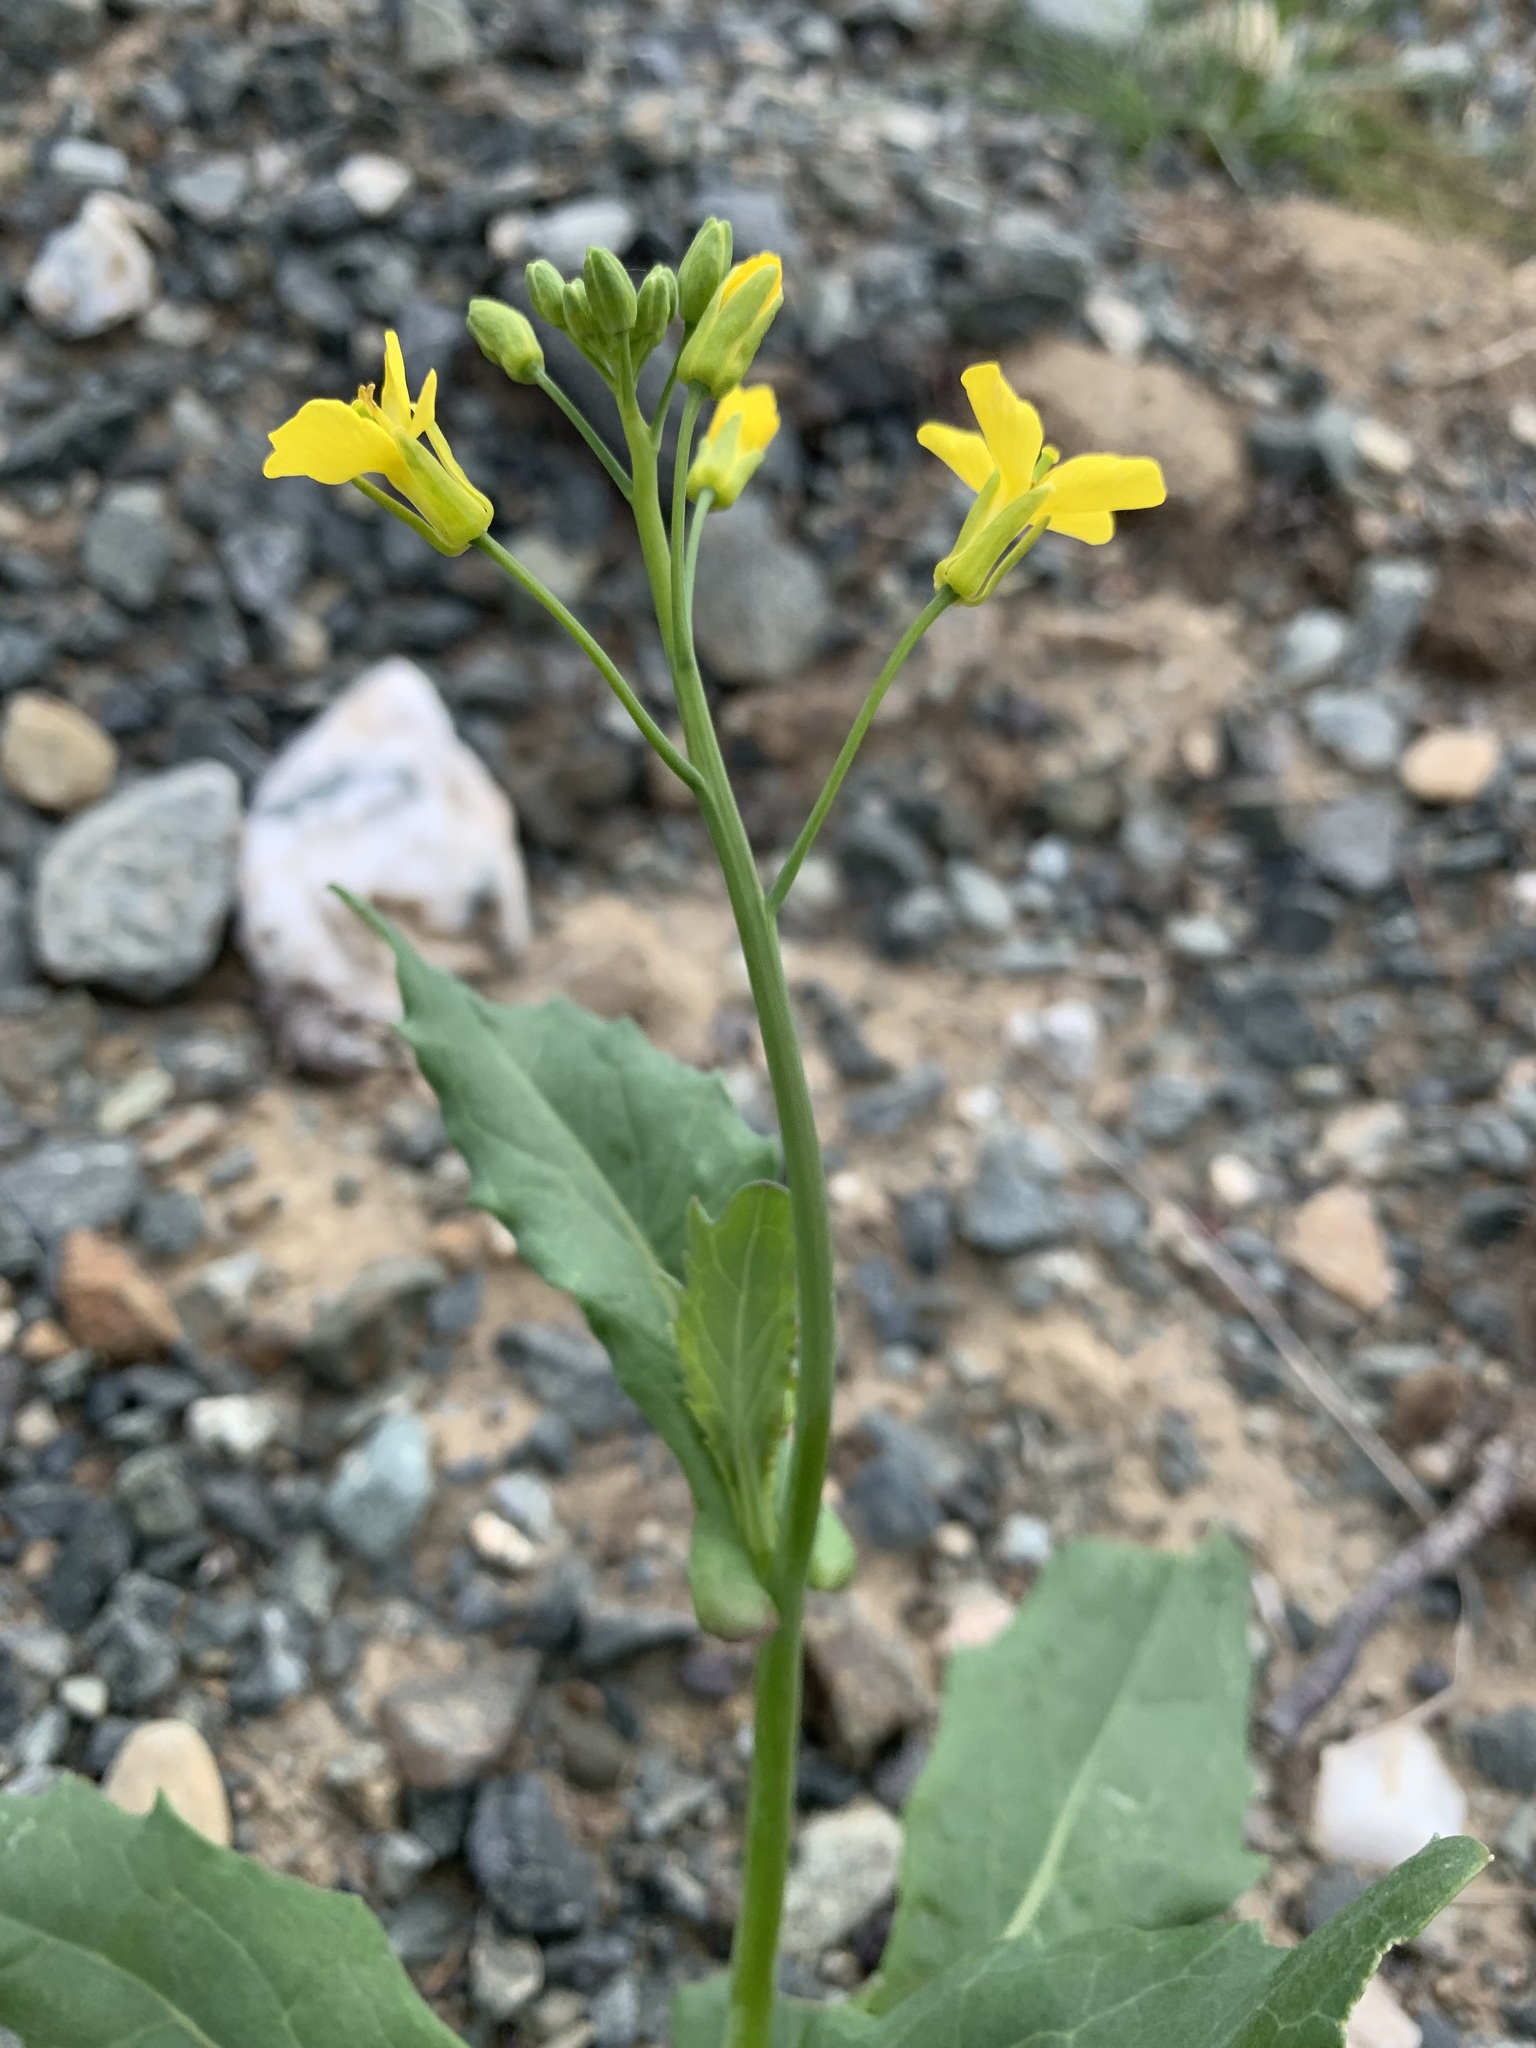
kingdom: Plantae
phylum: Tracheophyta
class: Magnoliopsida
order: Brassicales
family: Brassicaceae
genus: Brassica
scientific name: Brassica napus
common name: Rape
